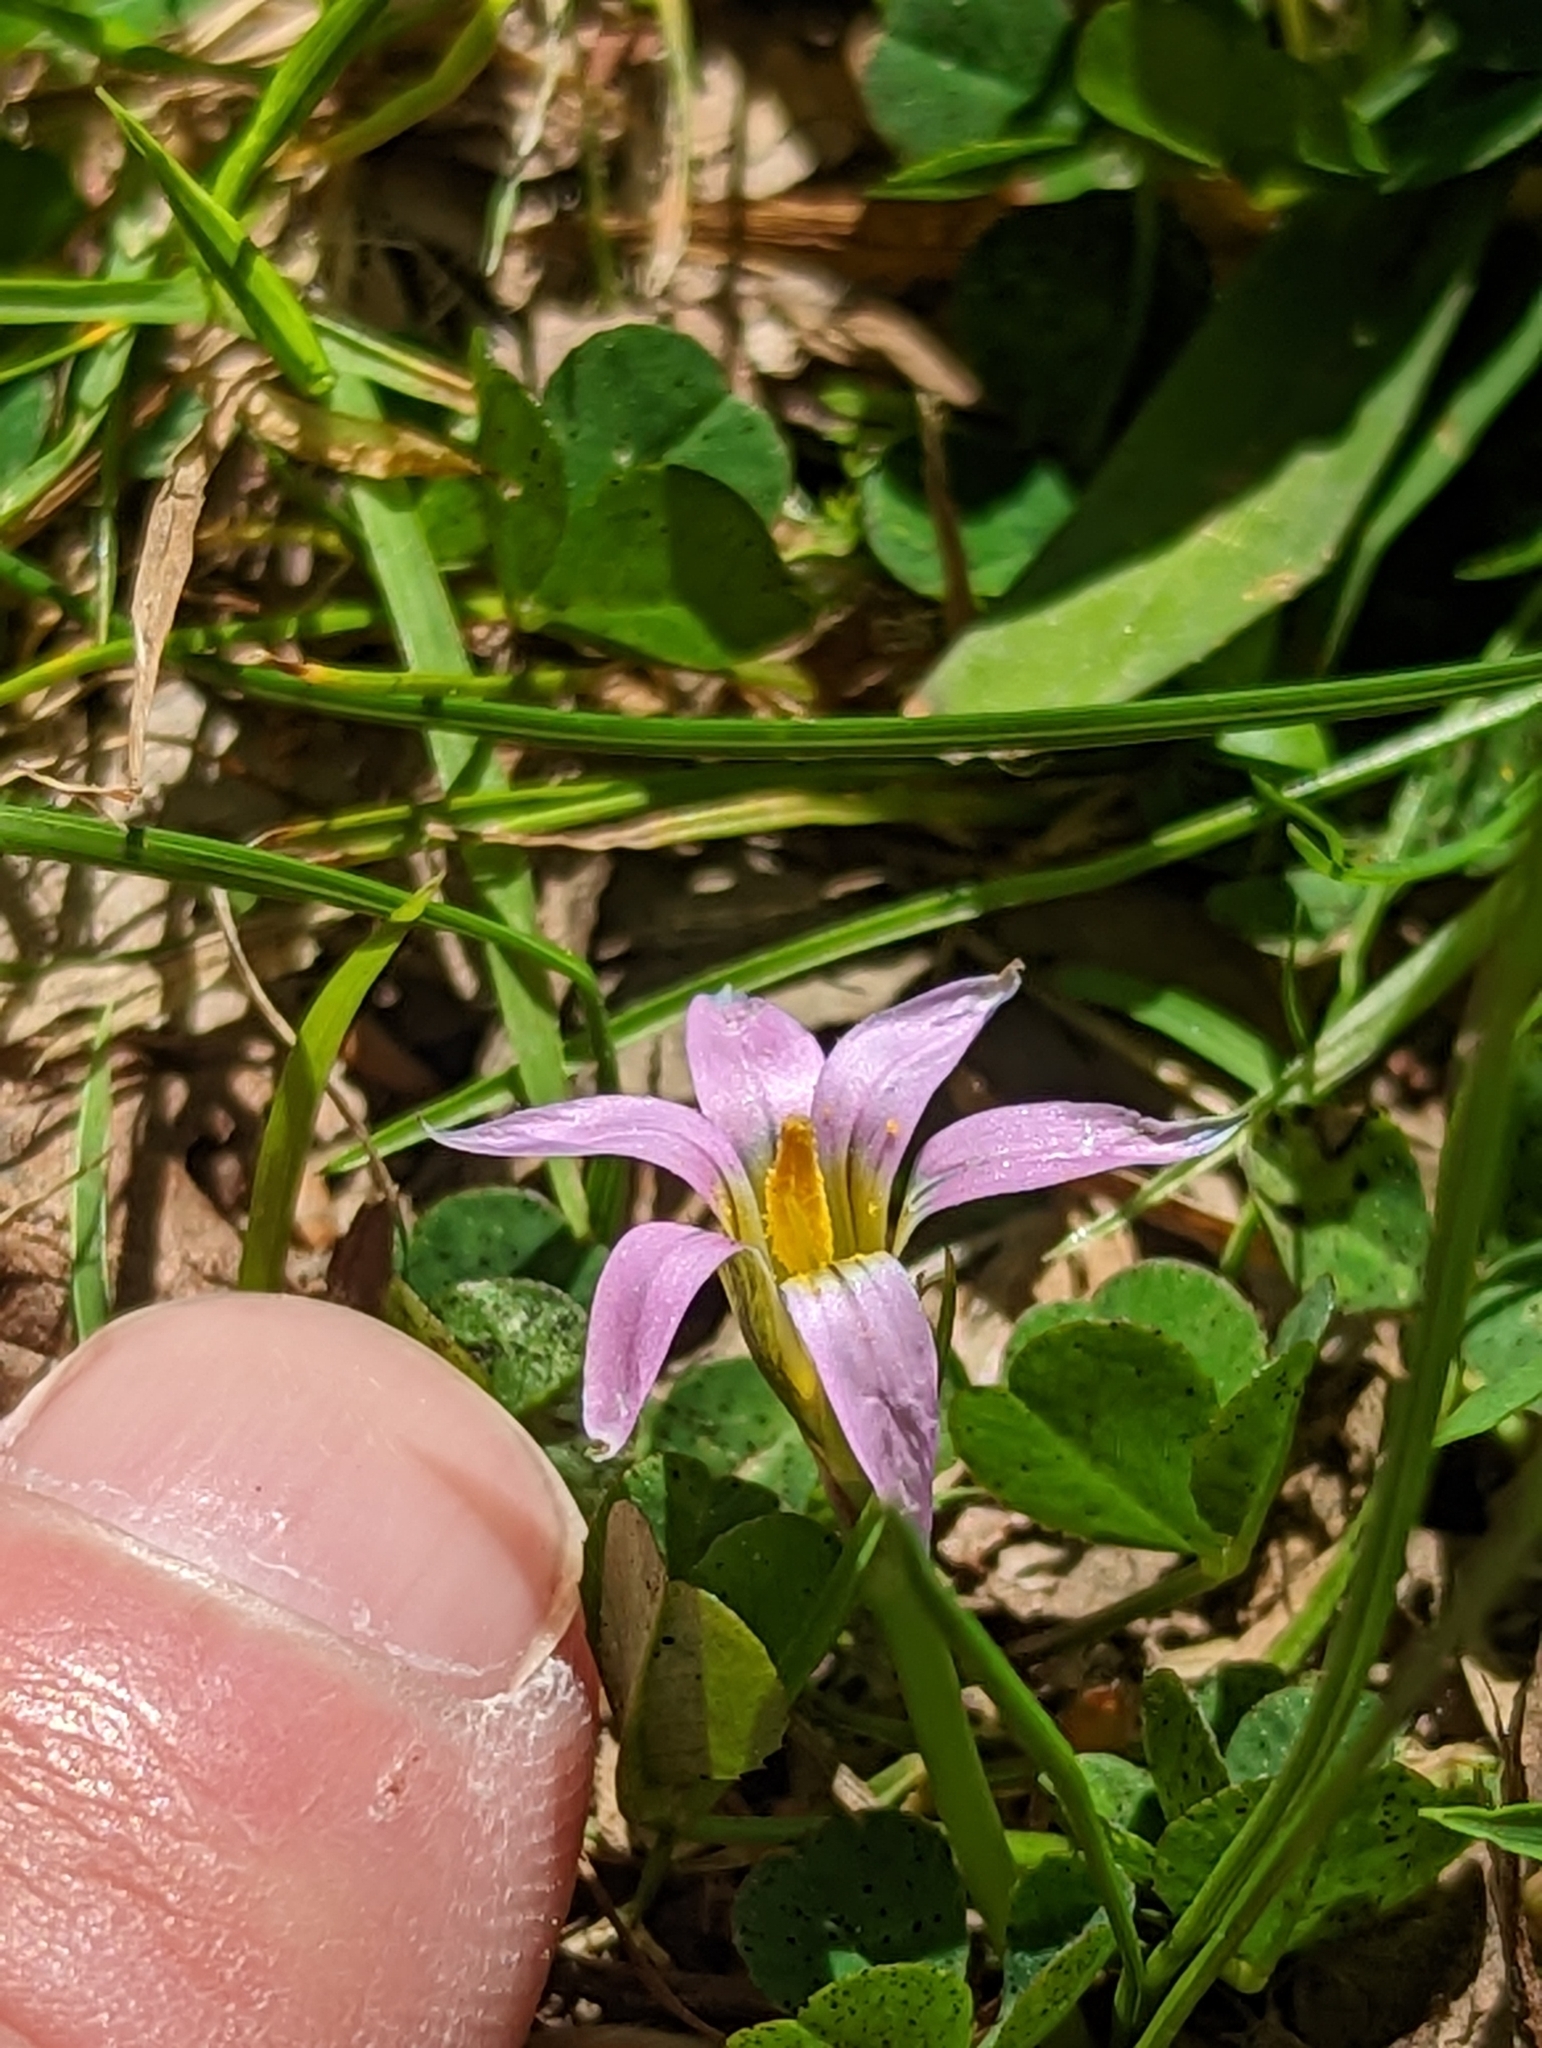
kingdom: Plantae
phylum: Tracheophyta
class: Liliopsida
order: Asparagales
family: Iridaceae
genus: Romulea
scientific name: Romulea rosea
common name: Oniongrass
